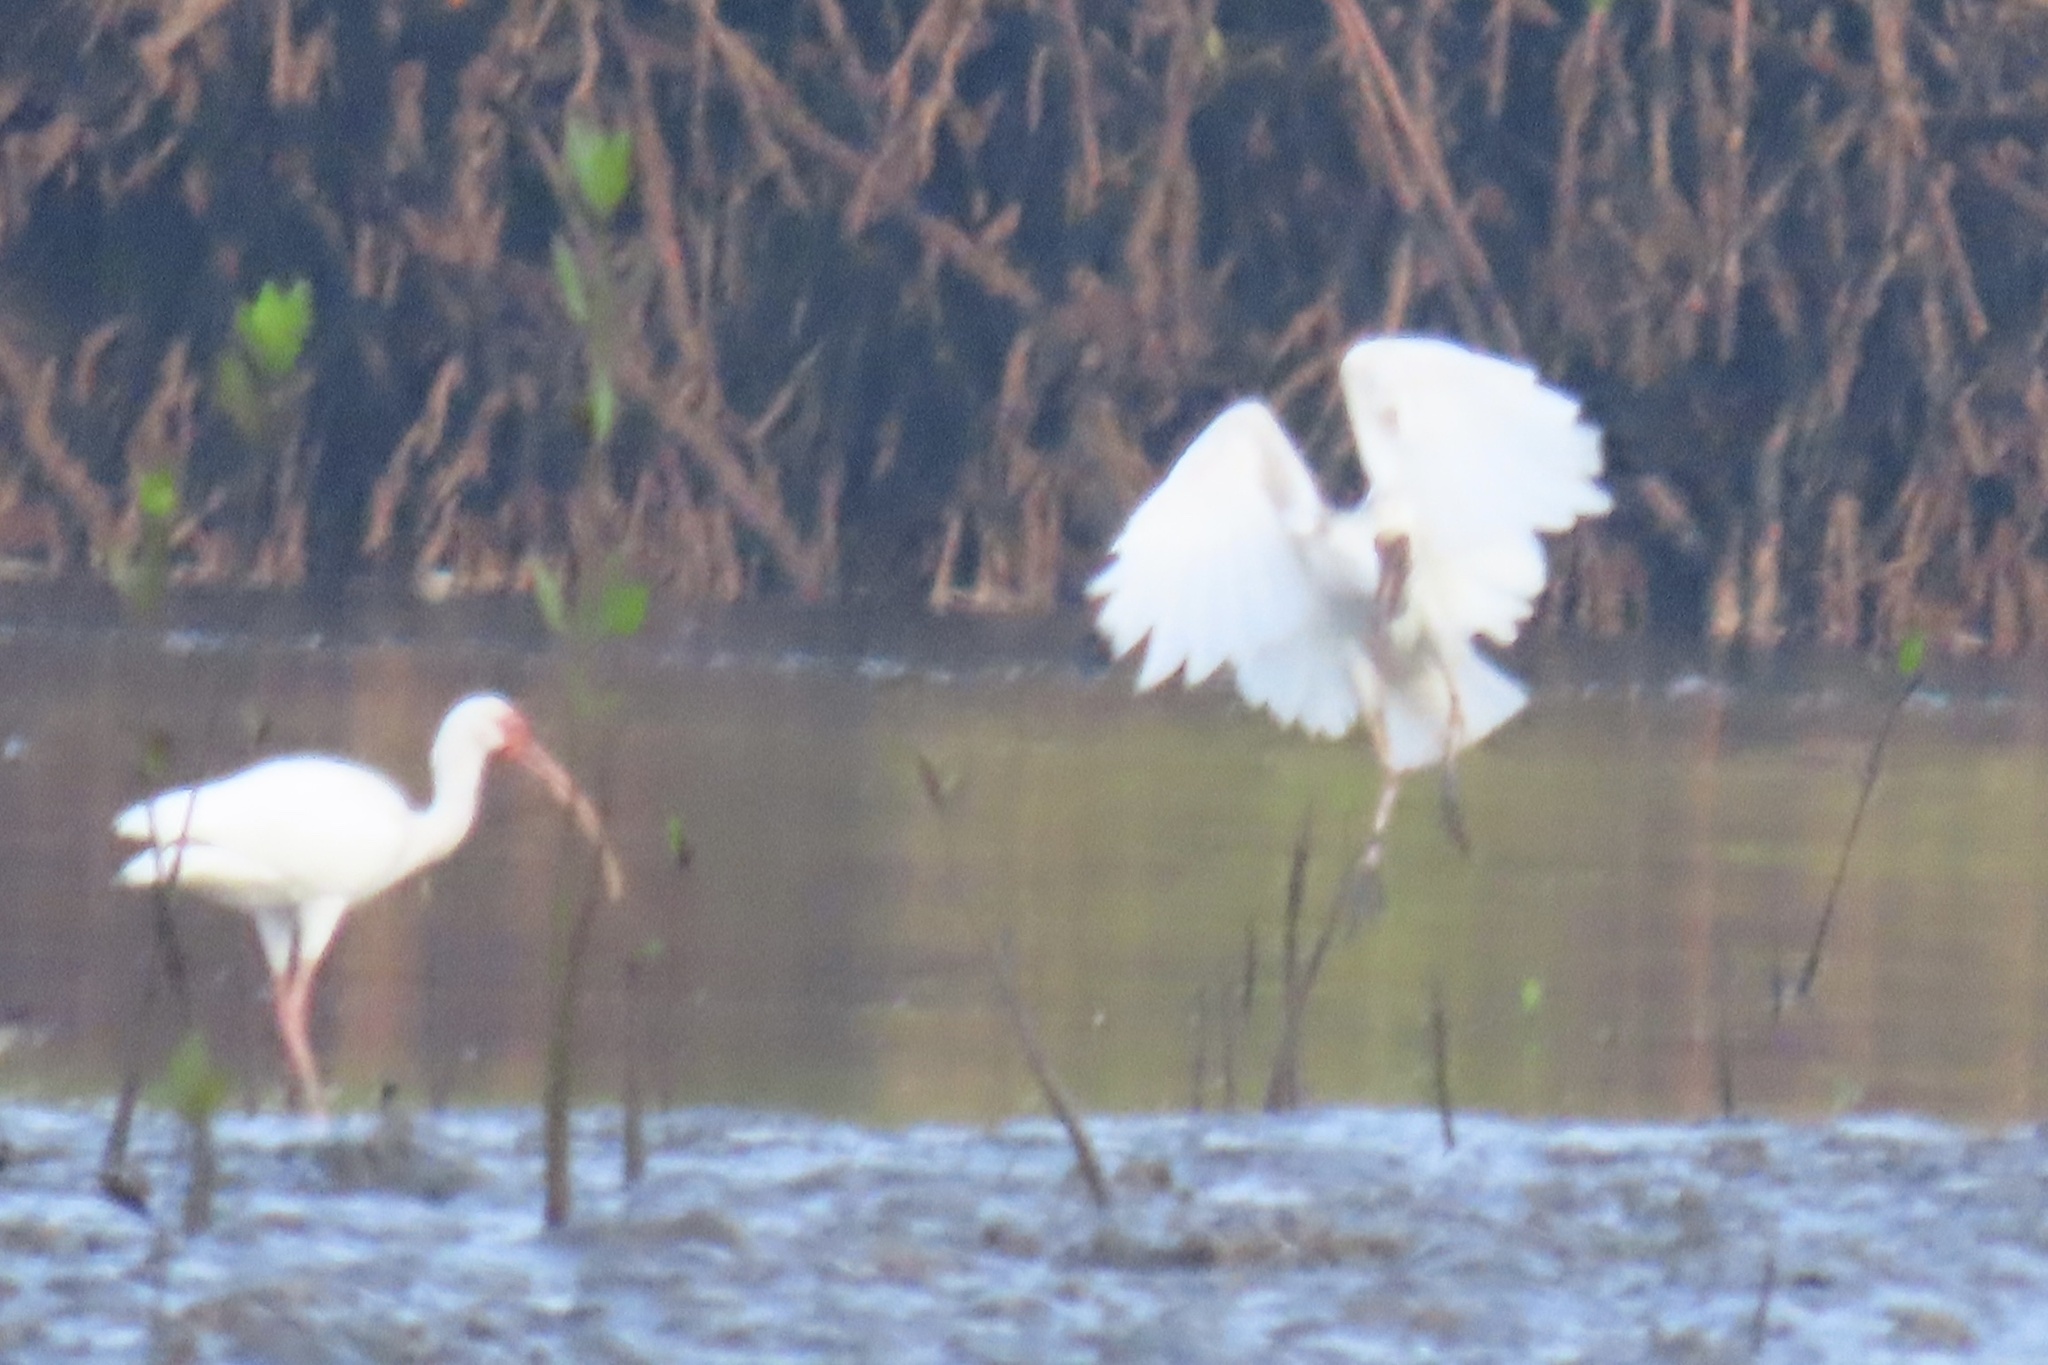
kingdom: Animalia
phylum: Chordata
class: Aves
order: Pelecaniformes
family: Threskiornithidae
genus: Eudocimus
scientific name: Eudocimus albus
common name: White ibis
